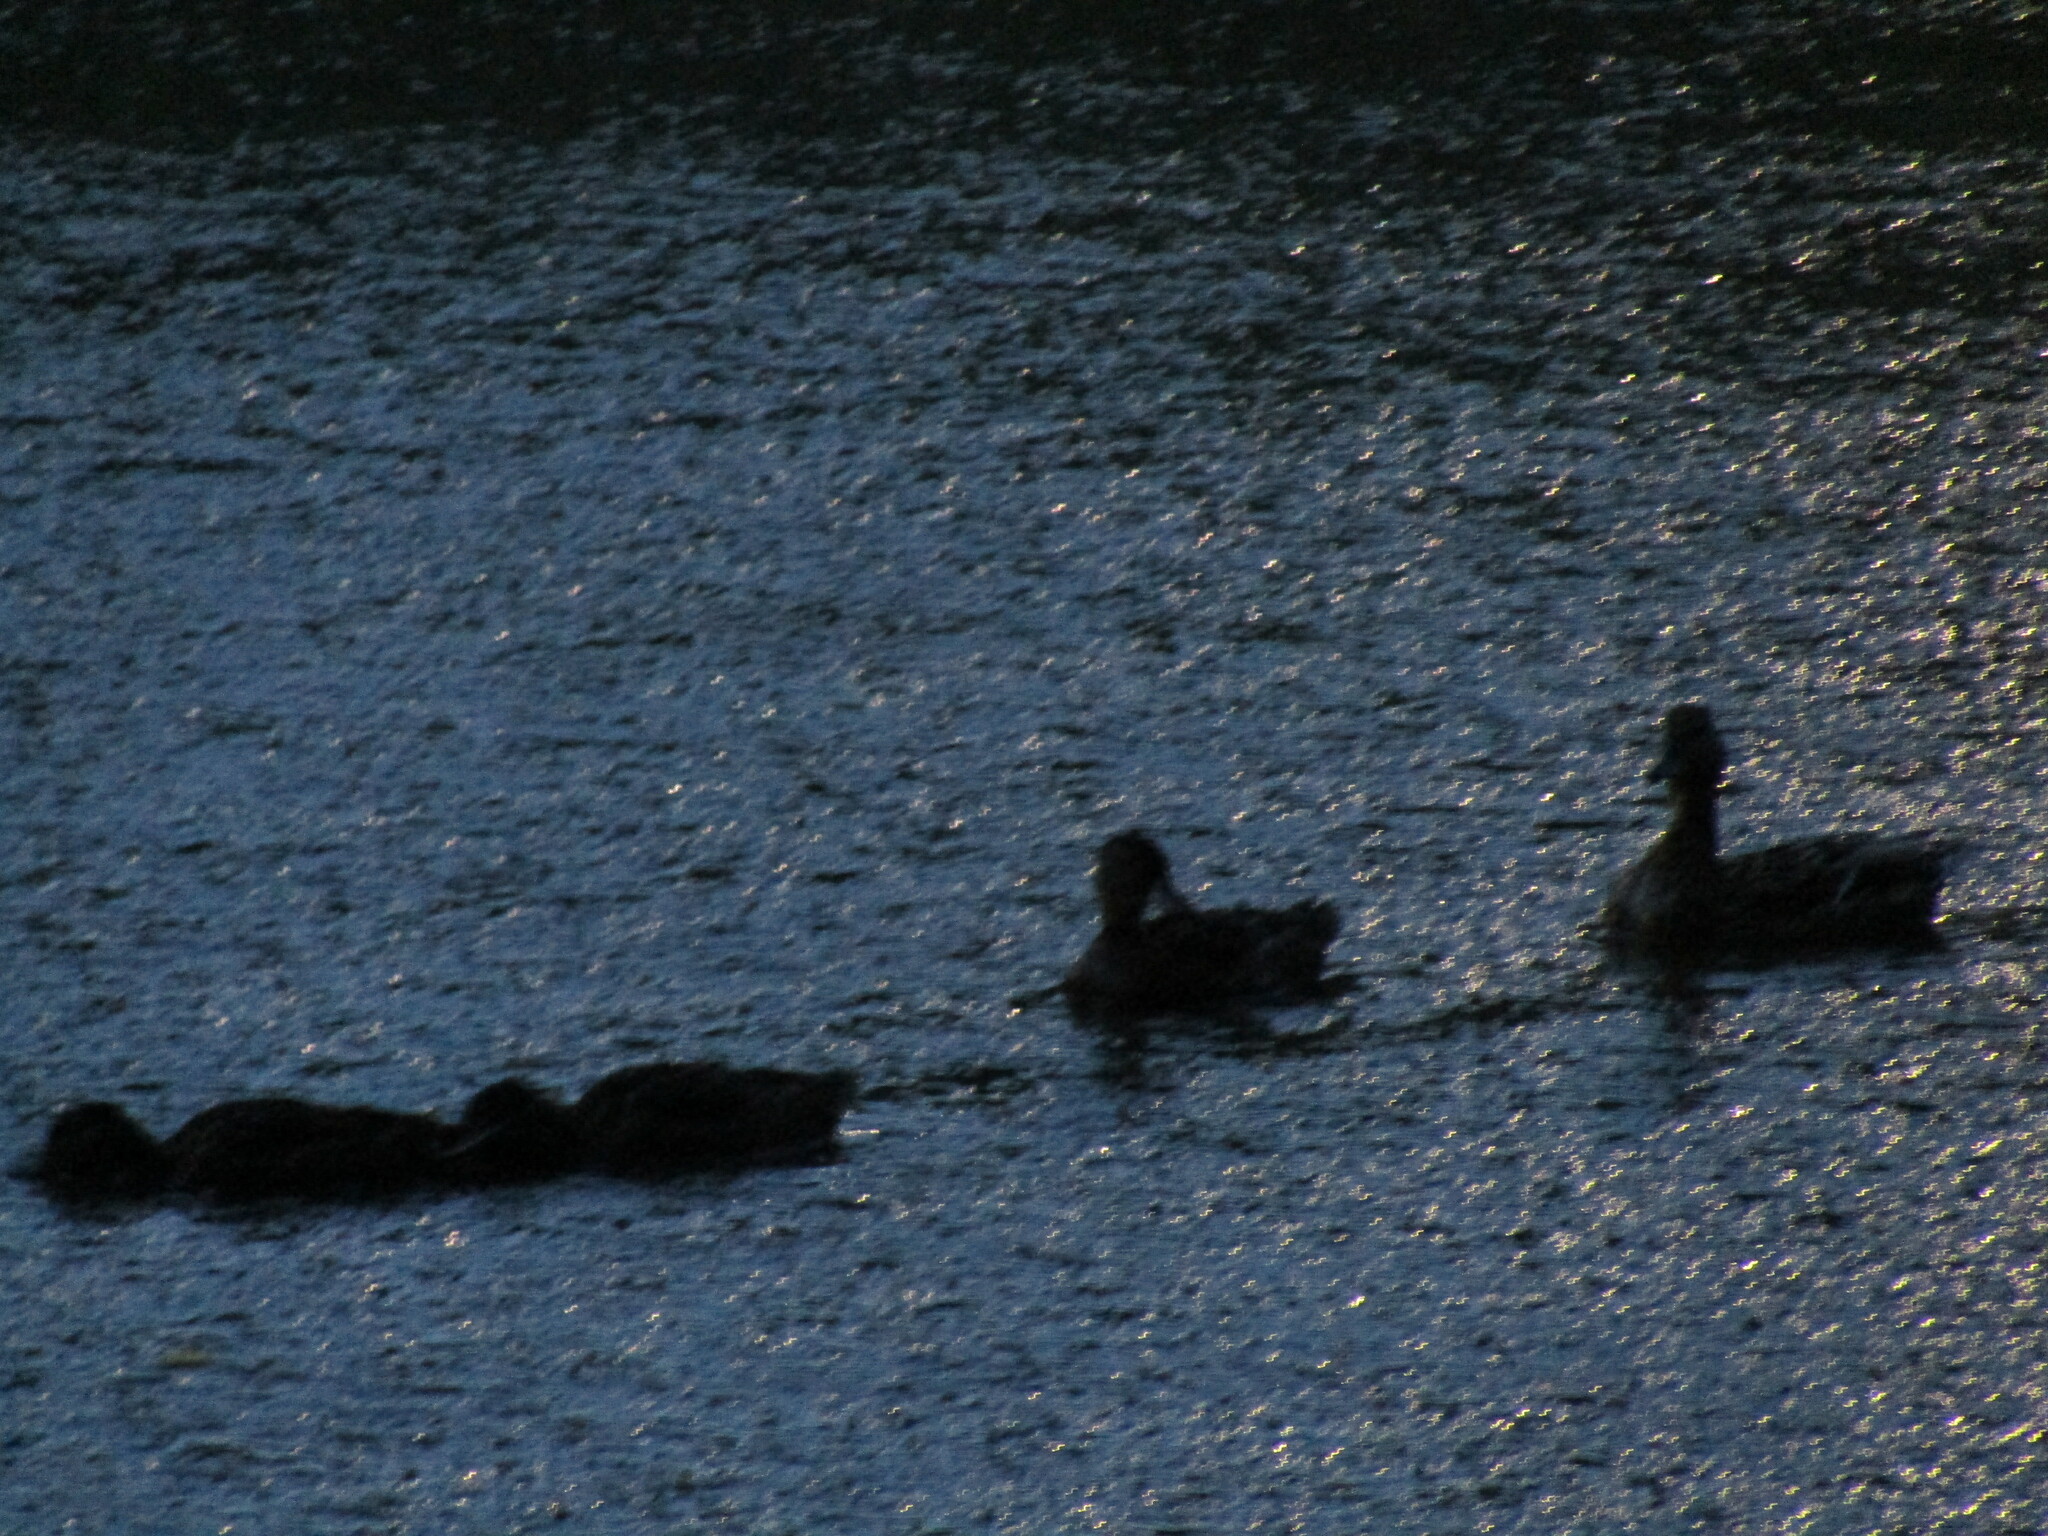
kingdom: Animalia
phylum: Chordata
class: Aves
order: Anseriformes
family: Anatidae
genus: Anas
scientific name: Anas platyrhynchos
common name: Mallard
